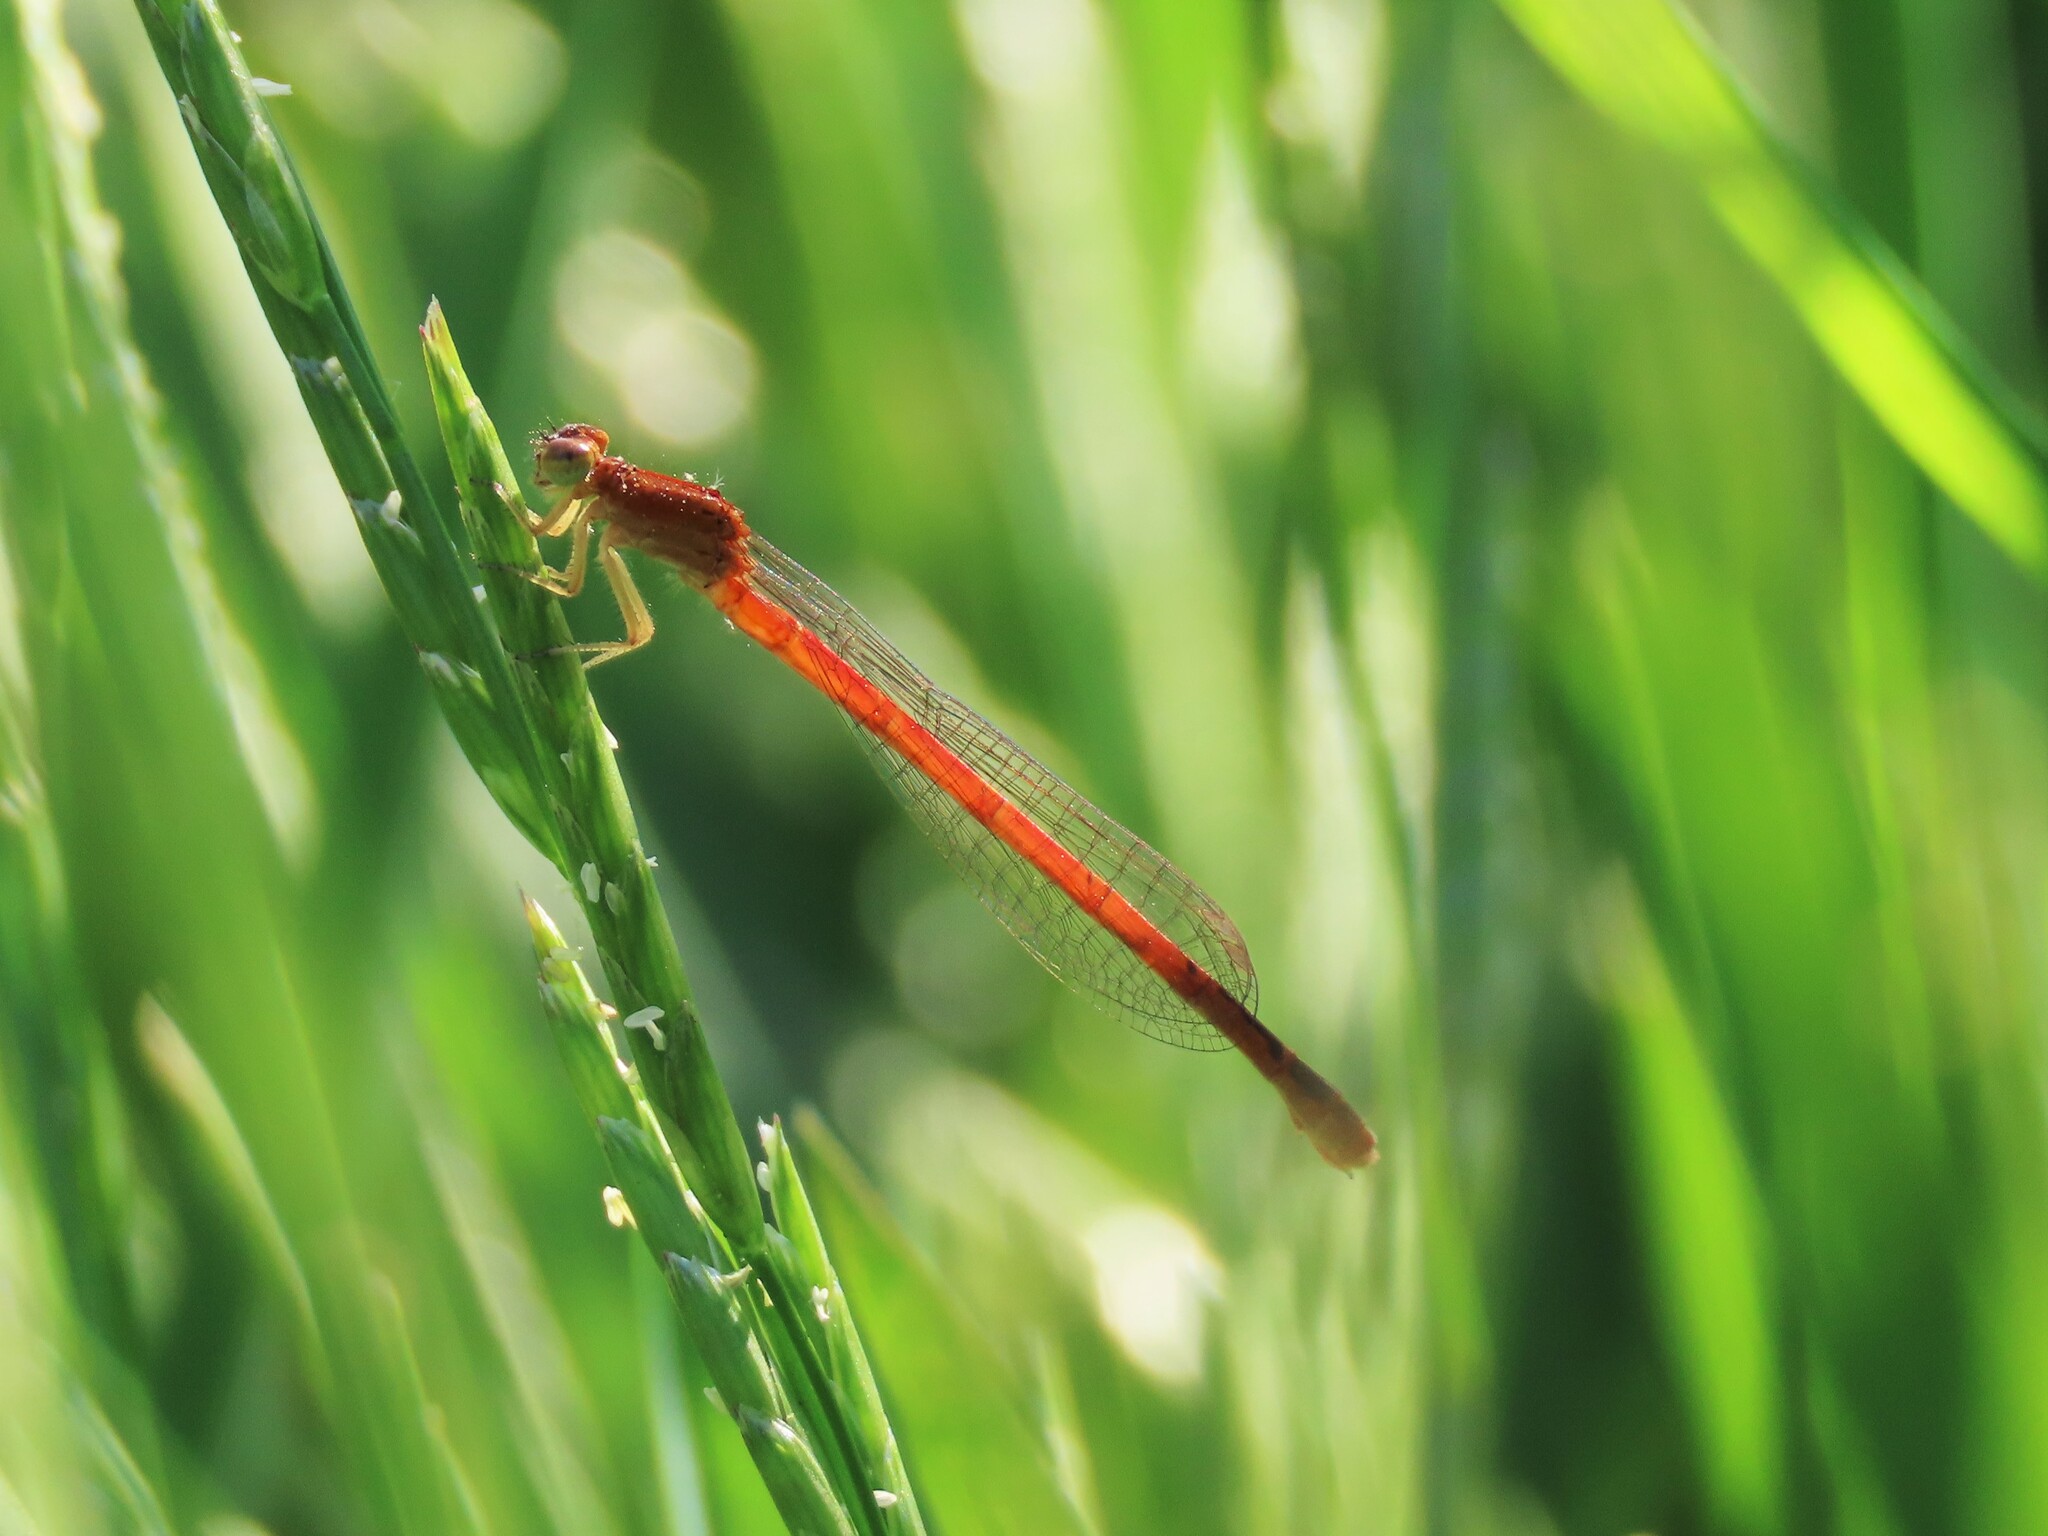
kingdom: Animalia
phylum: Arthropoda
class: Insecta
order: Odonata
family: Coenagrionidae
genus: Amphiagrion
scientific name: Amphiagrion saucium
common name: Eastern red damsel
